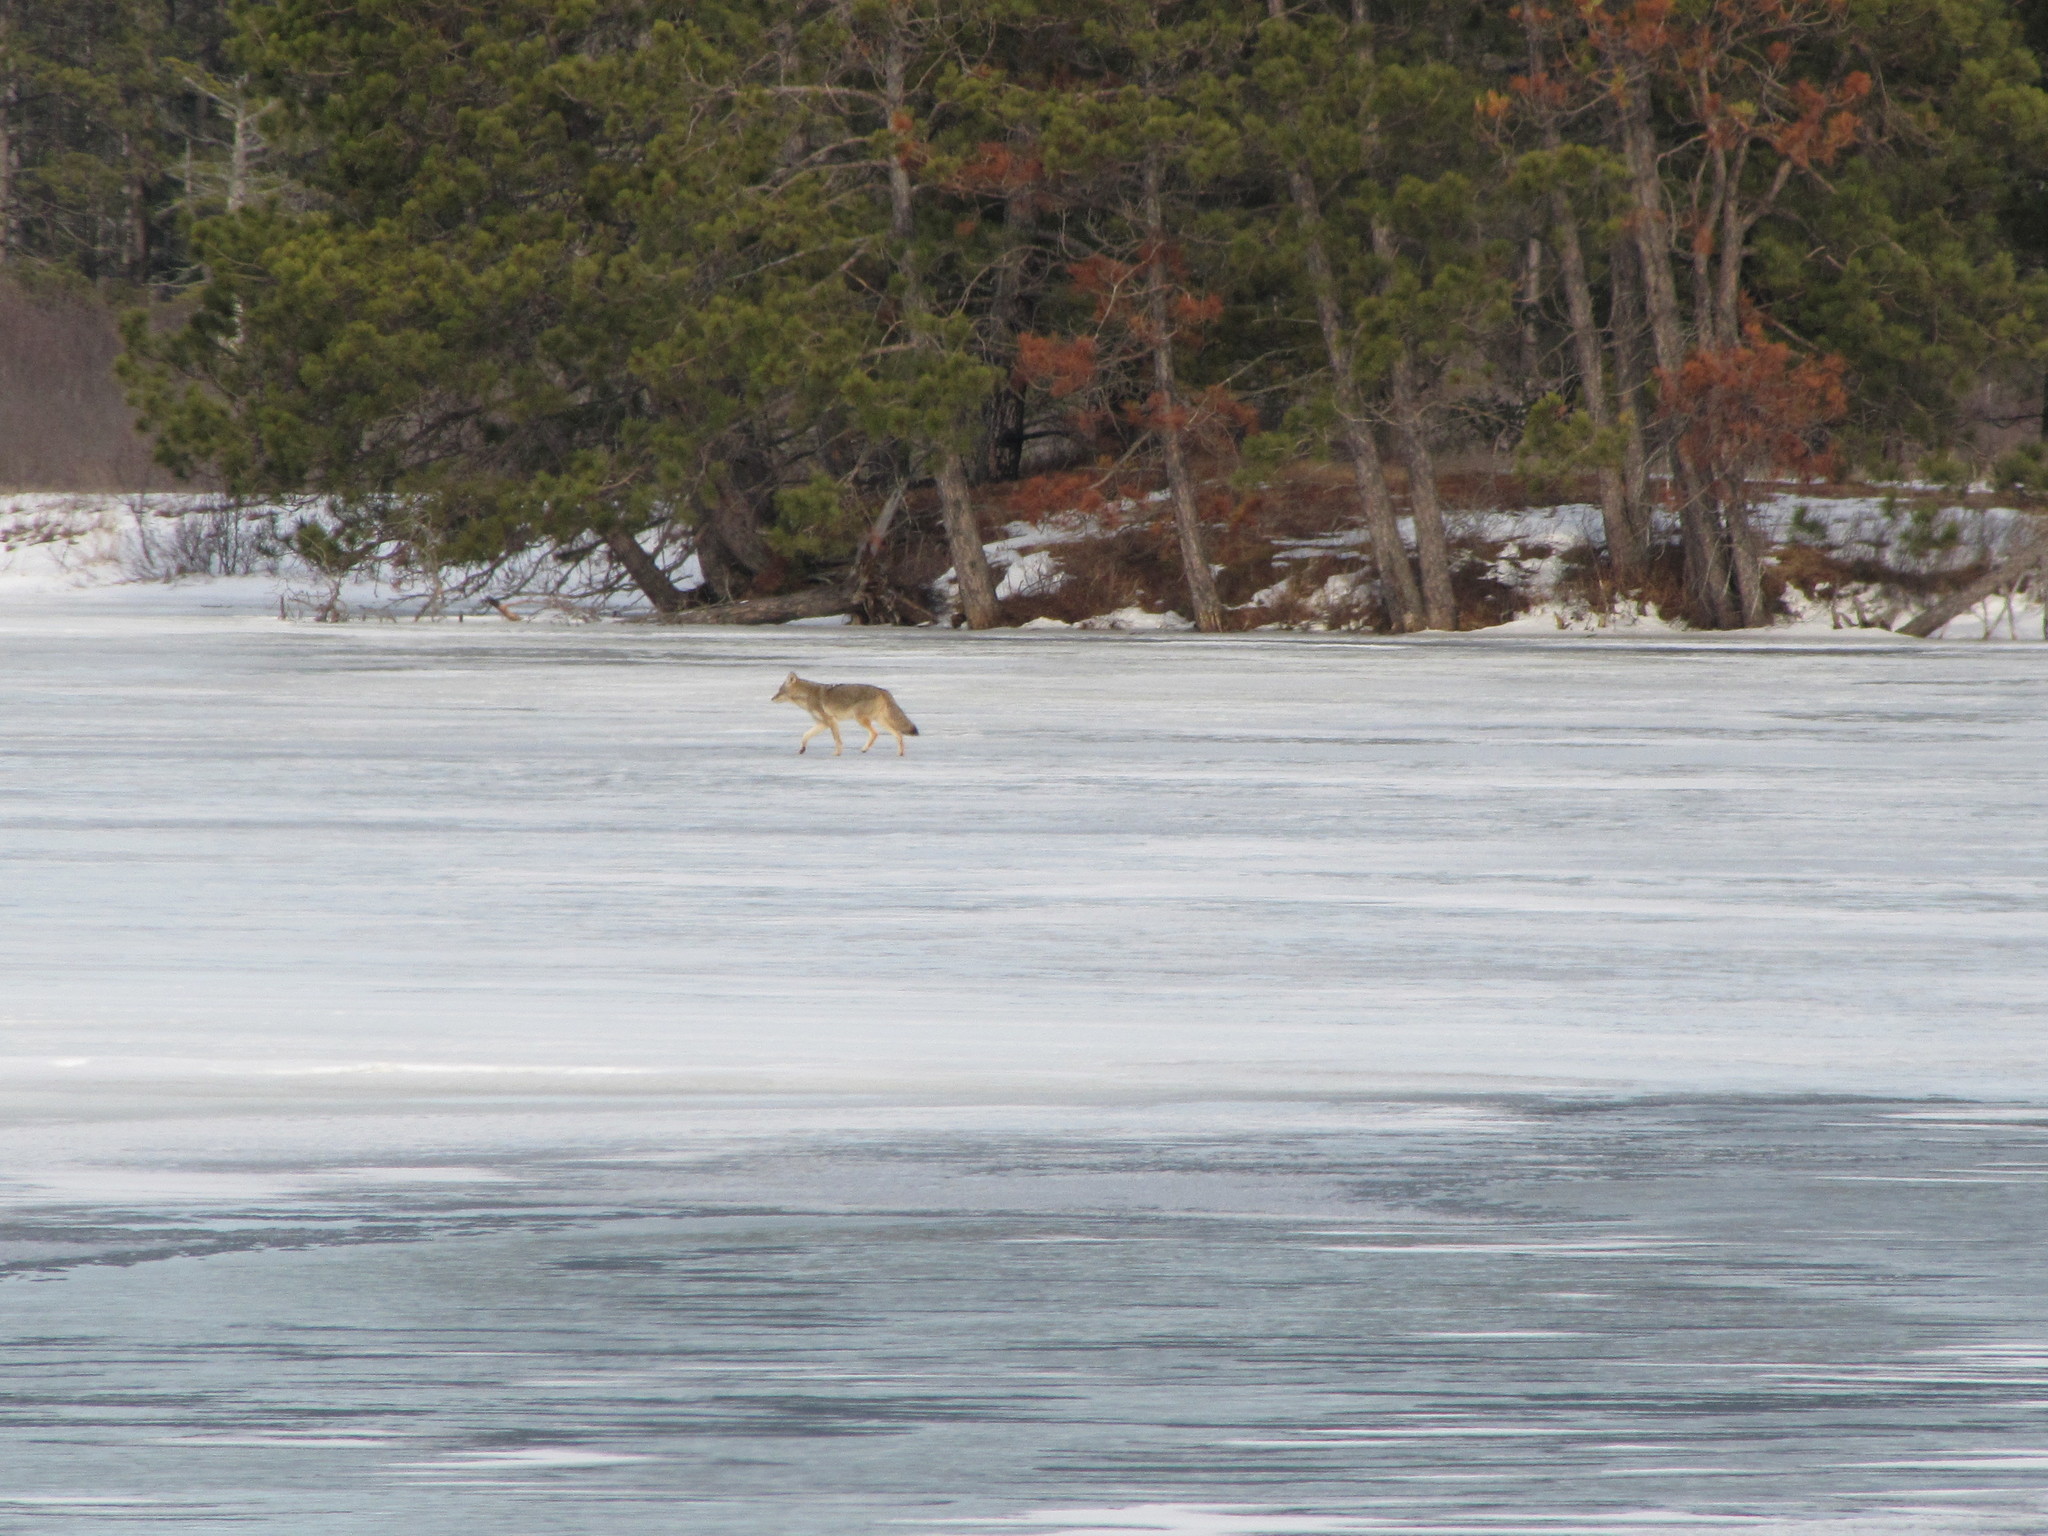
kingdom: Animalia
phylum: Chordata
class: Mammalia
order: Carnivora
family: Canidae
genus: Canis
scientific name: Canis latrans
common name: Coyote
